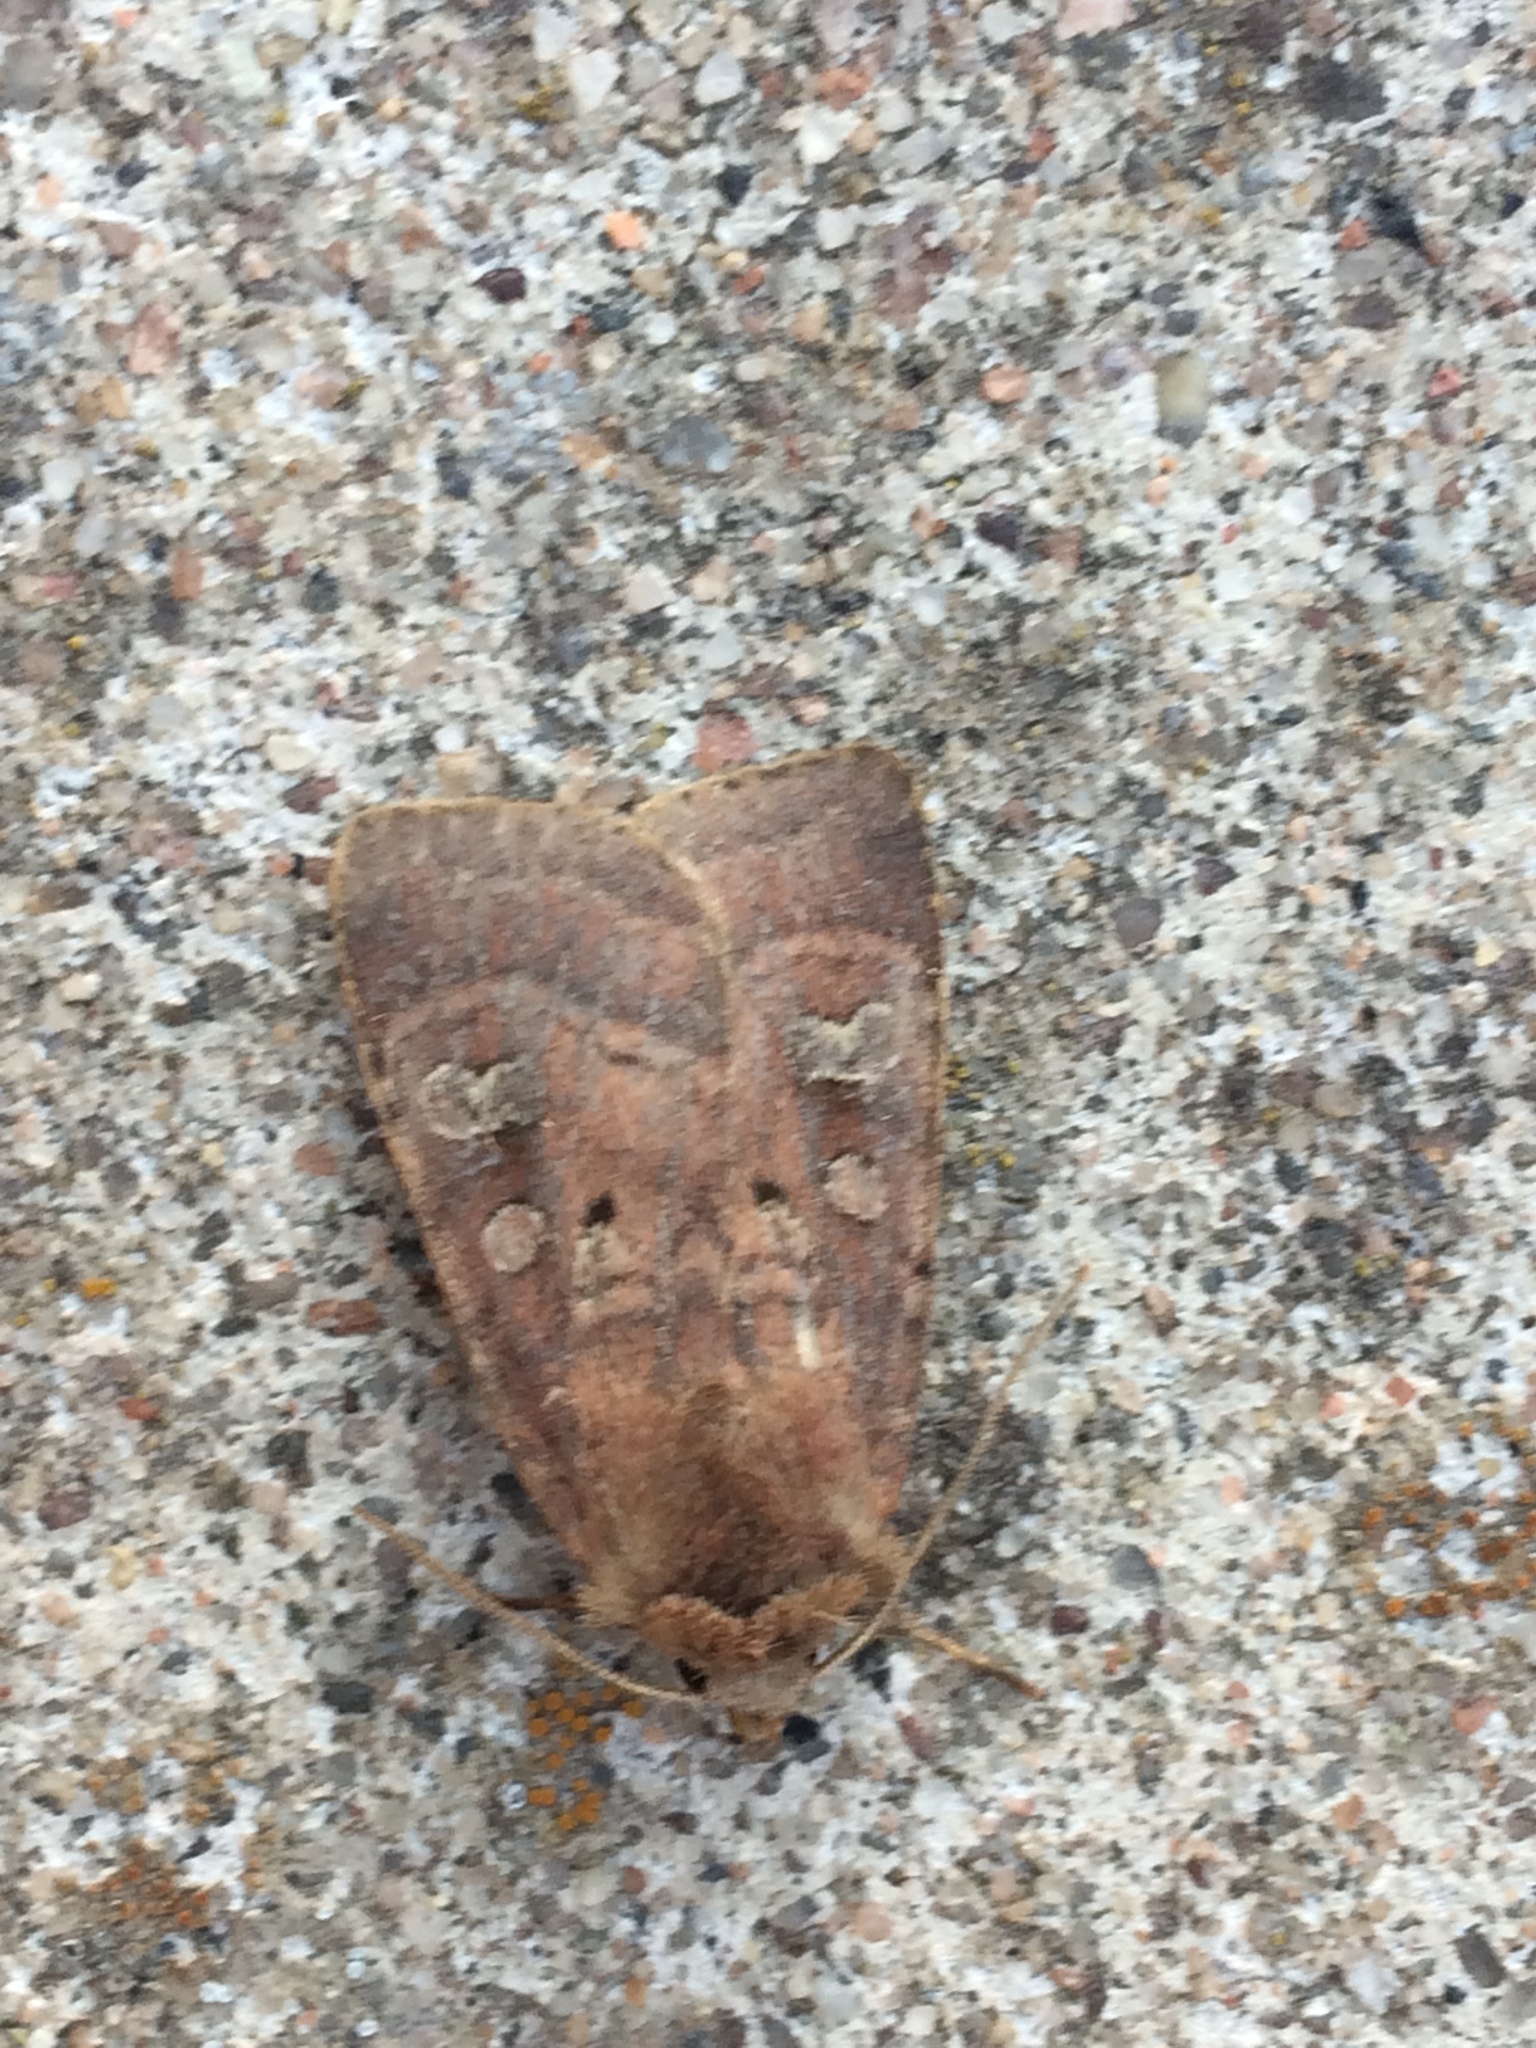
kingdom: Animalia
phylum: Arthropoda
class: Insecta
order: Lepidoptera
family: Noctuidae
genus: Diarsia
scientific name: Diarsia rubi
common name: Small square-spot
